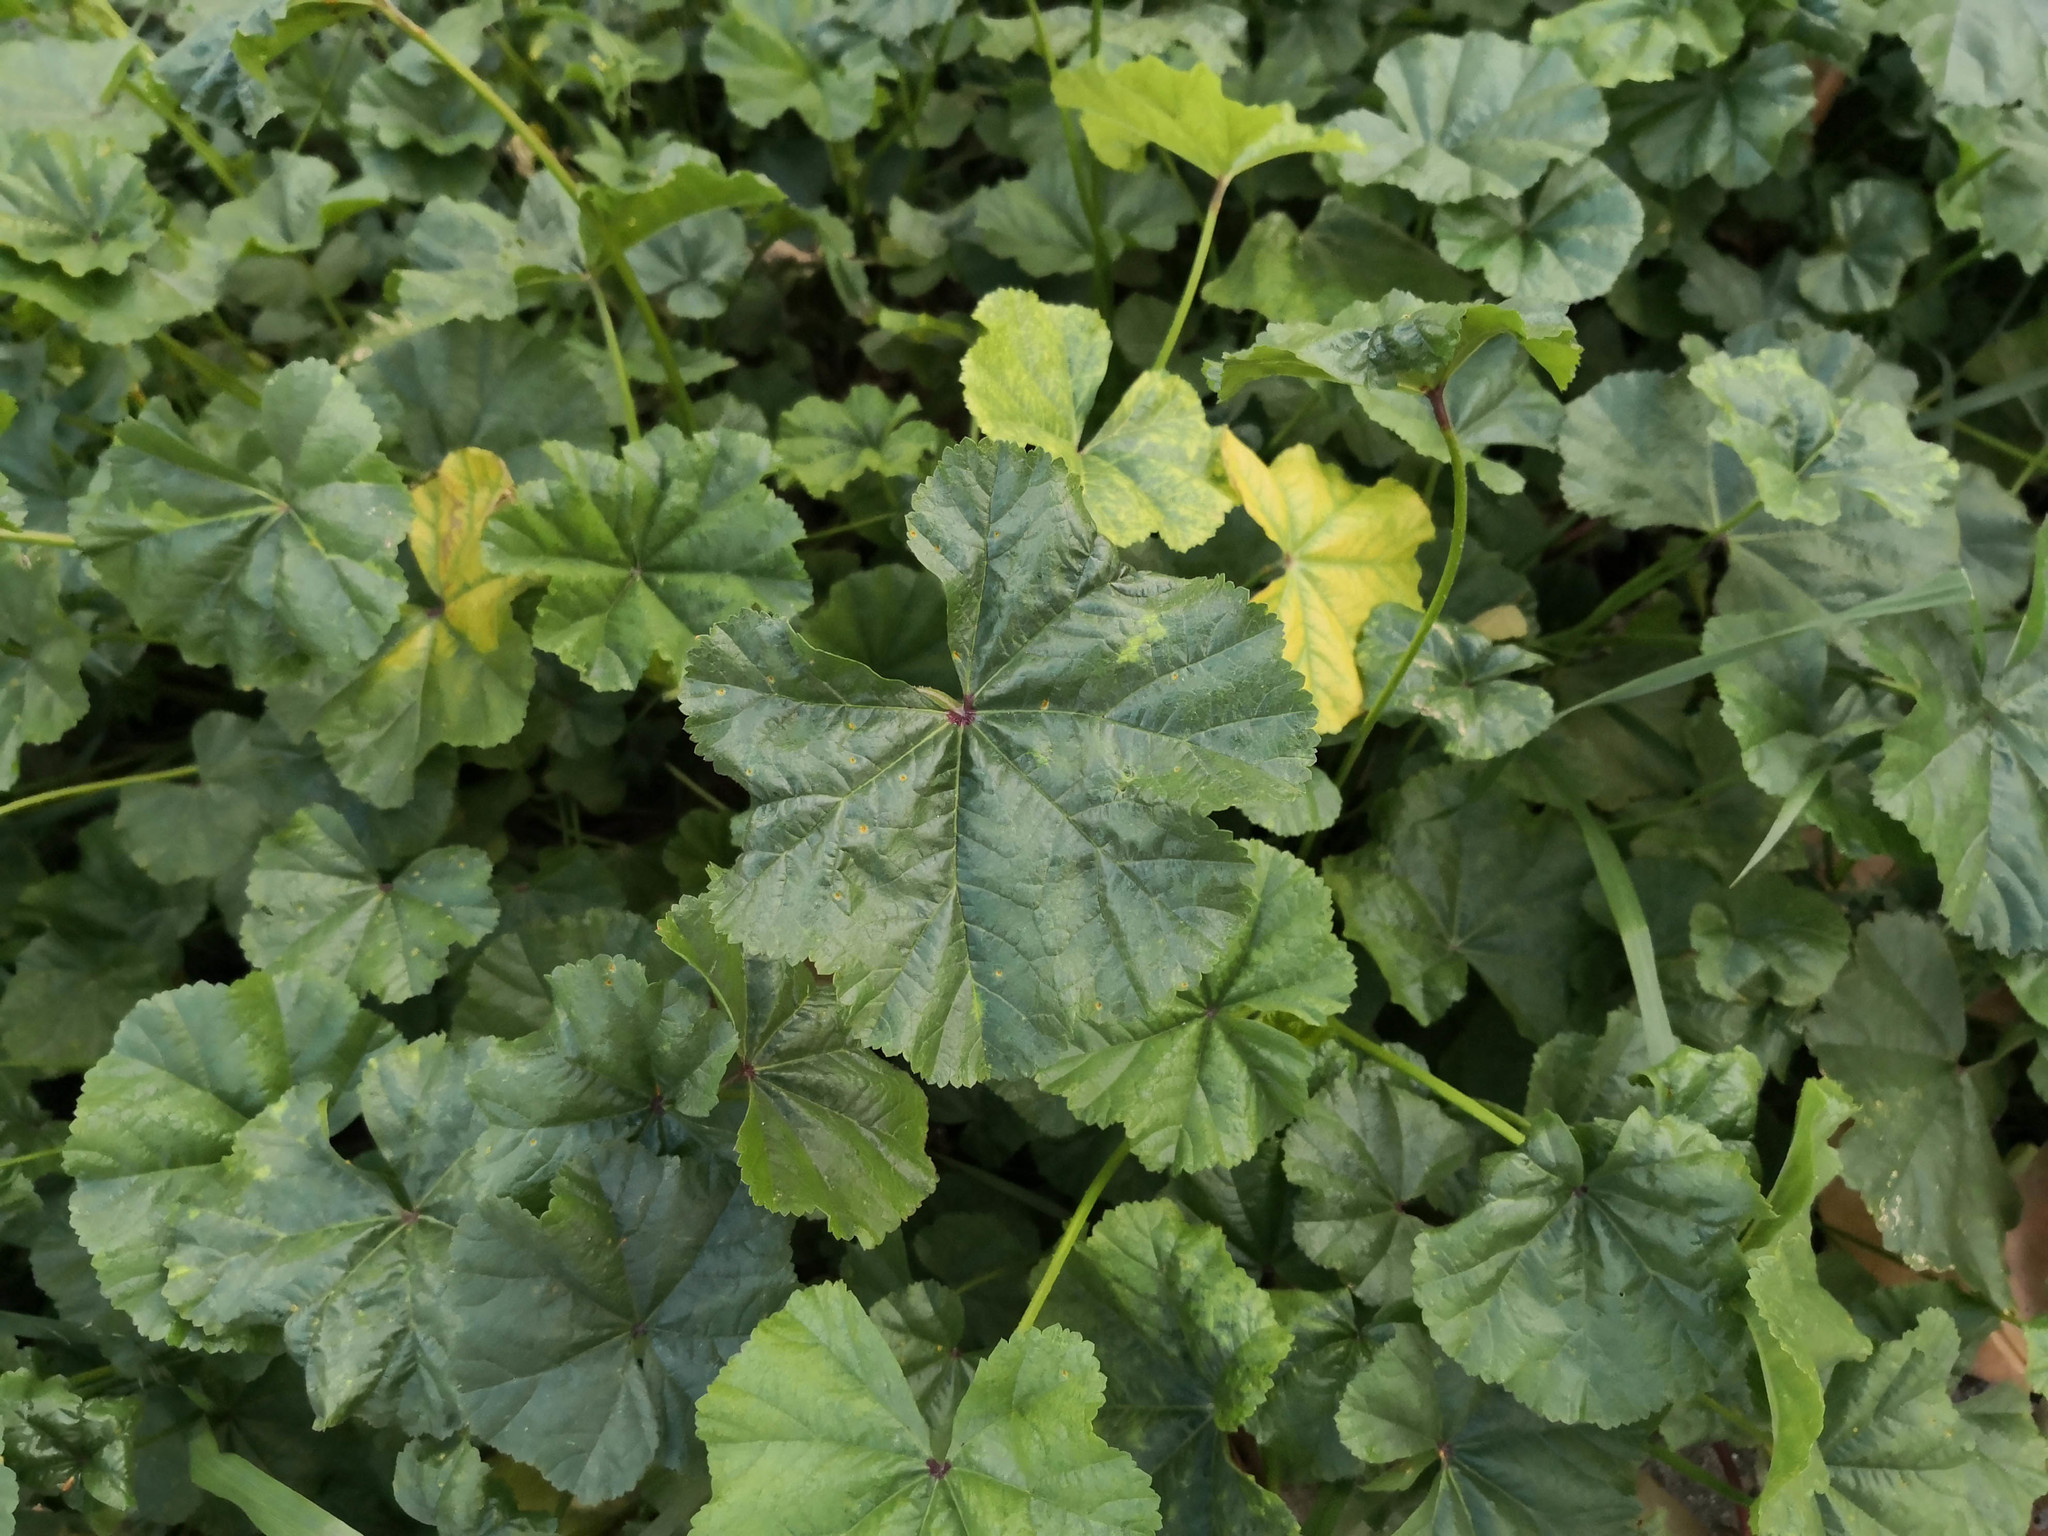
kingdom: Plantae
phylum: Tracheophyta
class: Magnoliopsida
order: Malvales
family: Malvaceae
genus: Malva
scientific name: Malva sylvestris
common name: Common mallow
